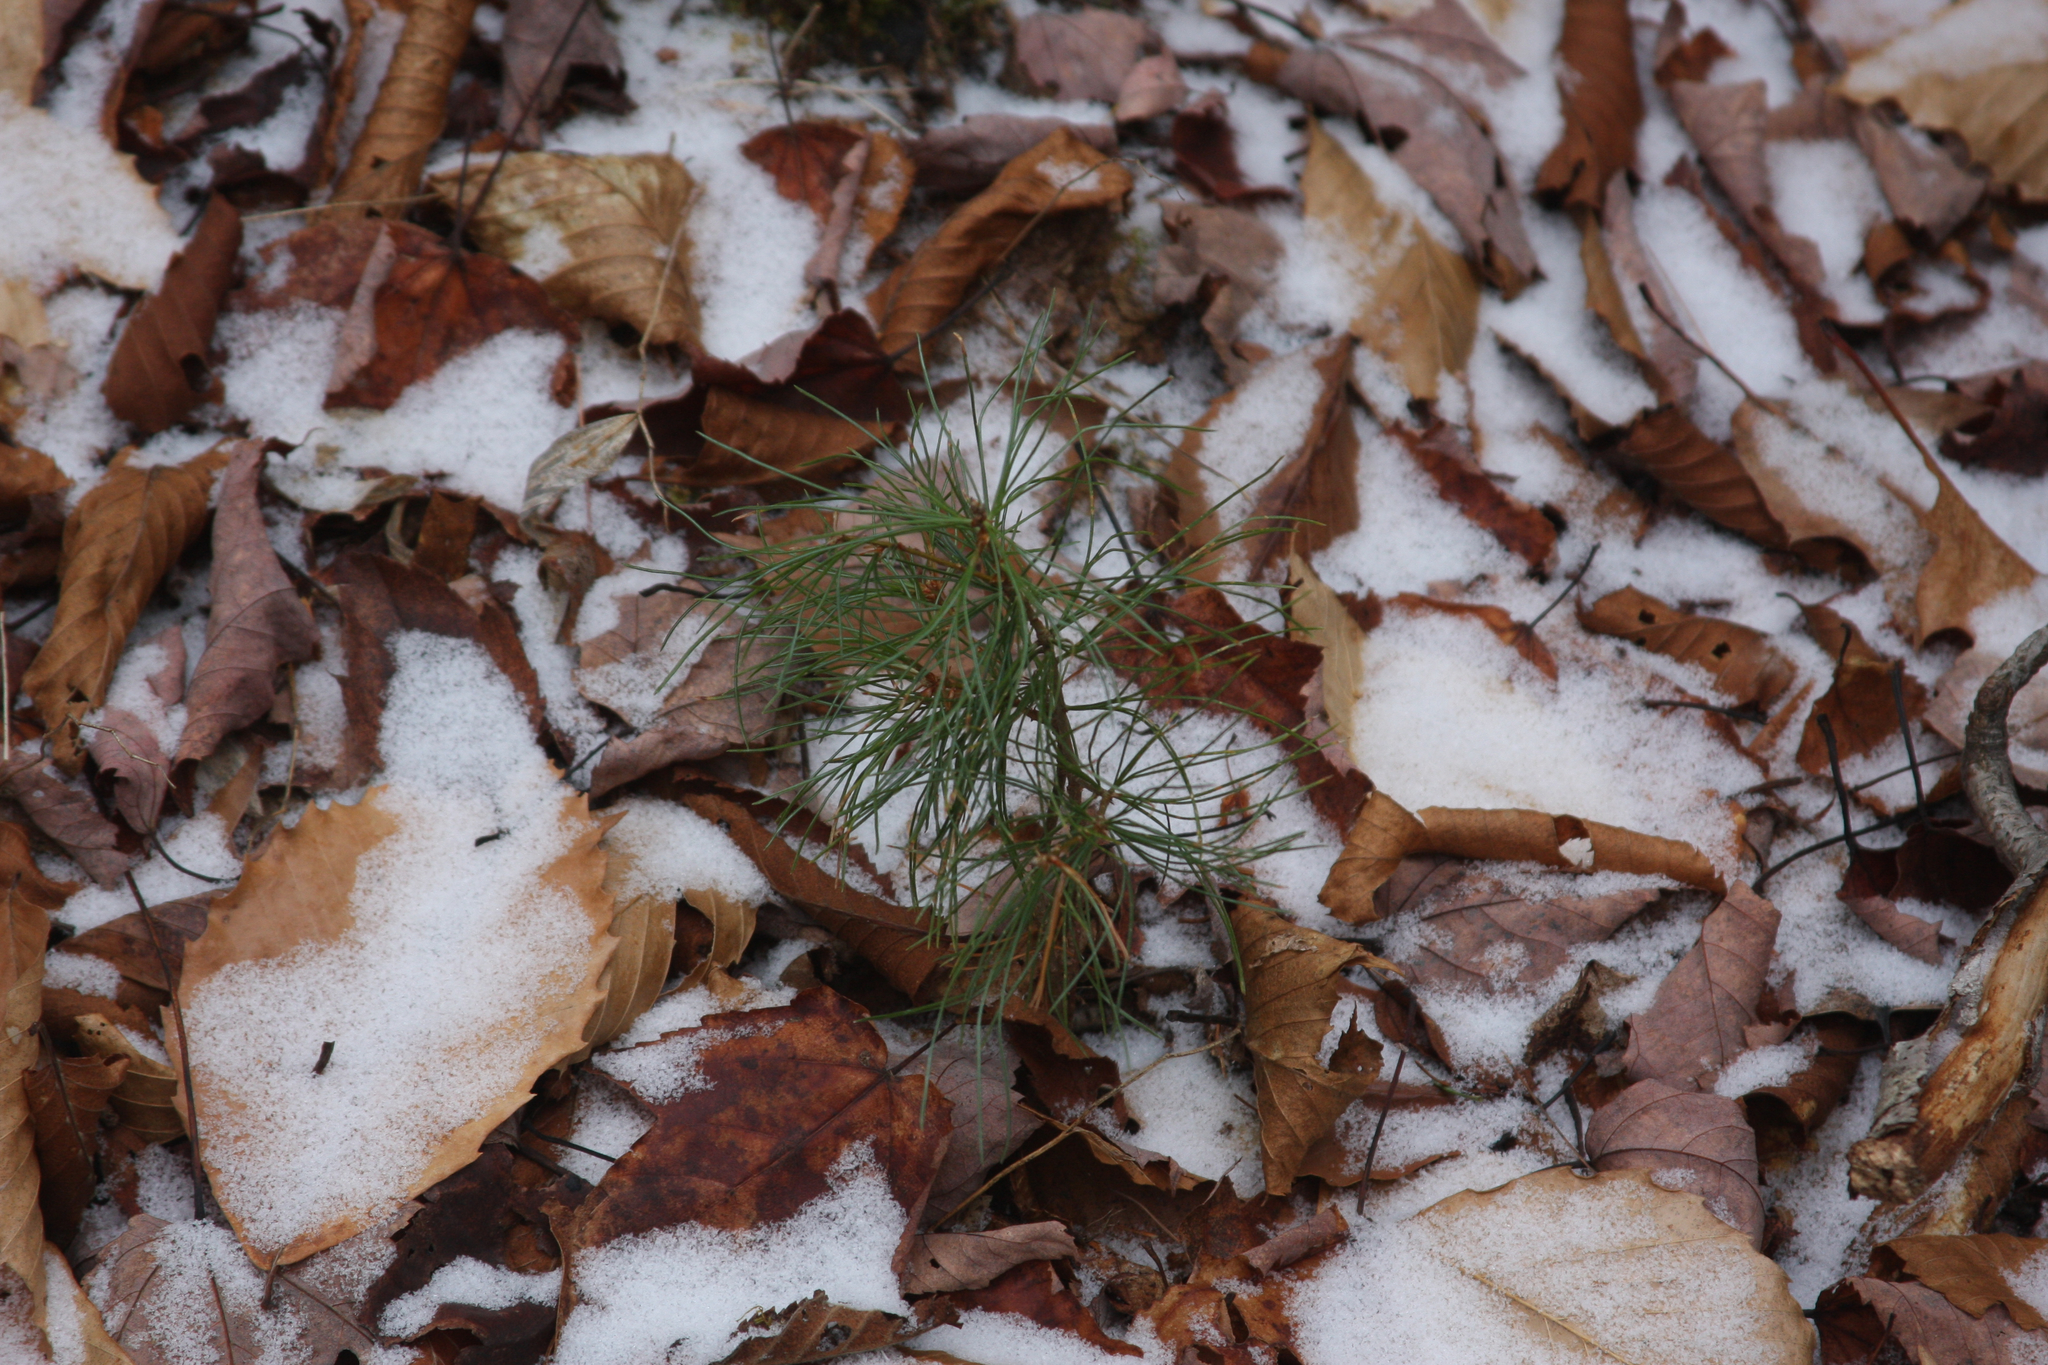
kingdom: Plantae
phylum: Tracheophyta
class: Pinopsida
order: Pinales
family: Pinaceae
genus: Pinus
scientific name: Pinus strobus
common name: Weymouth pine
